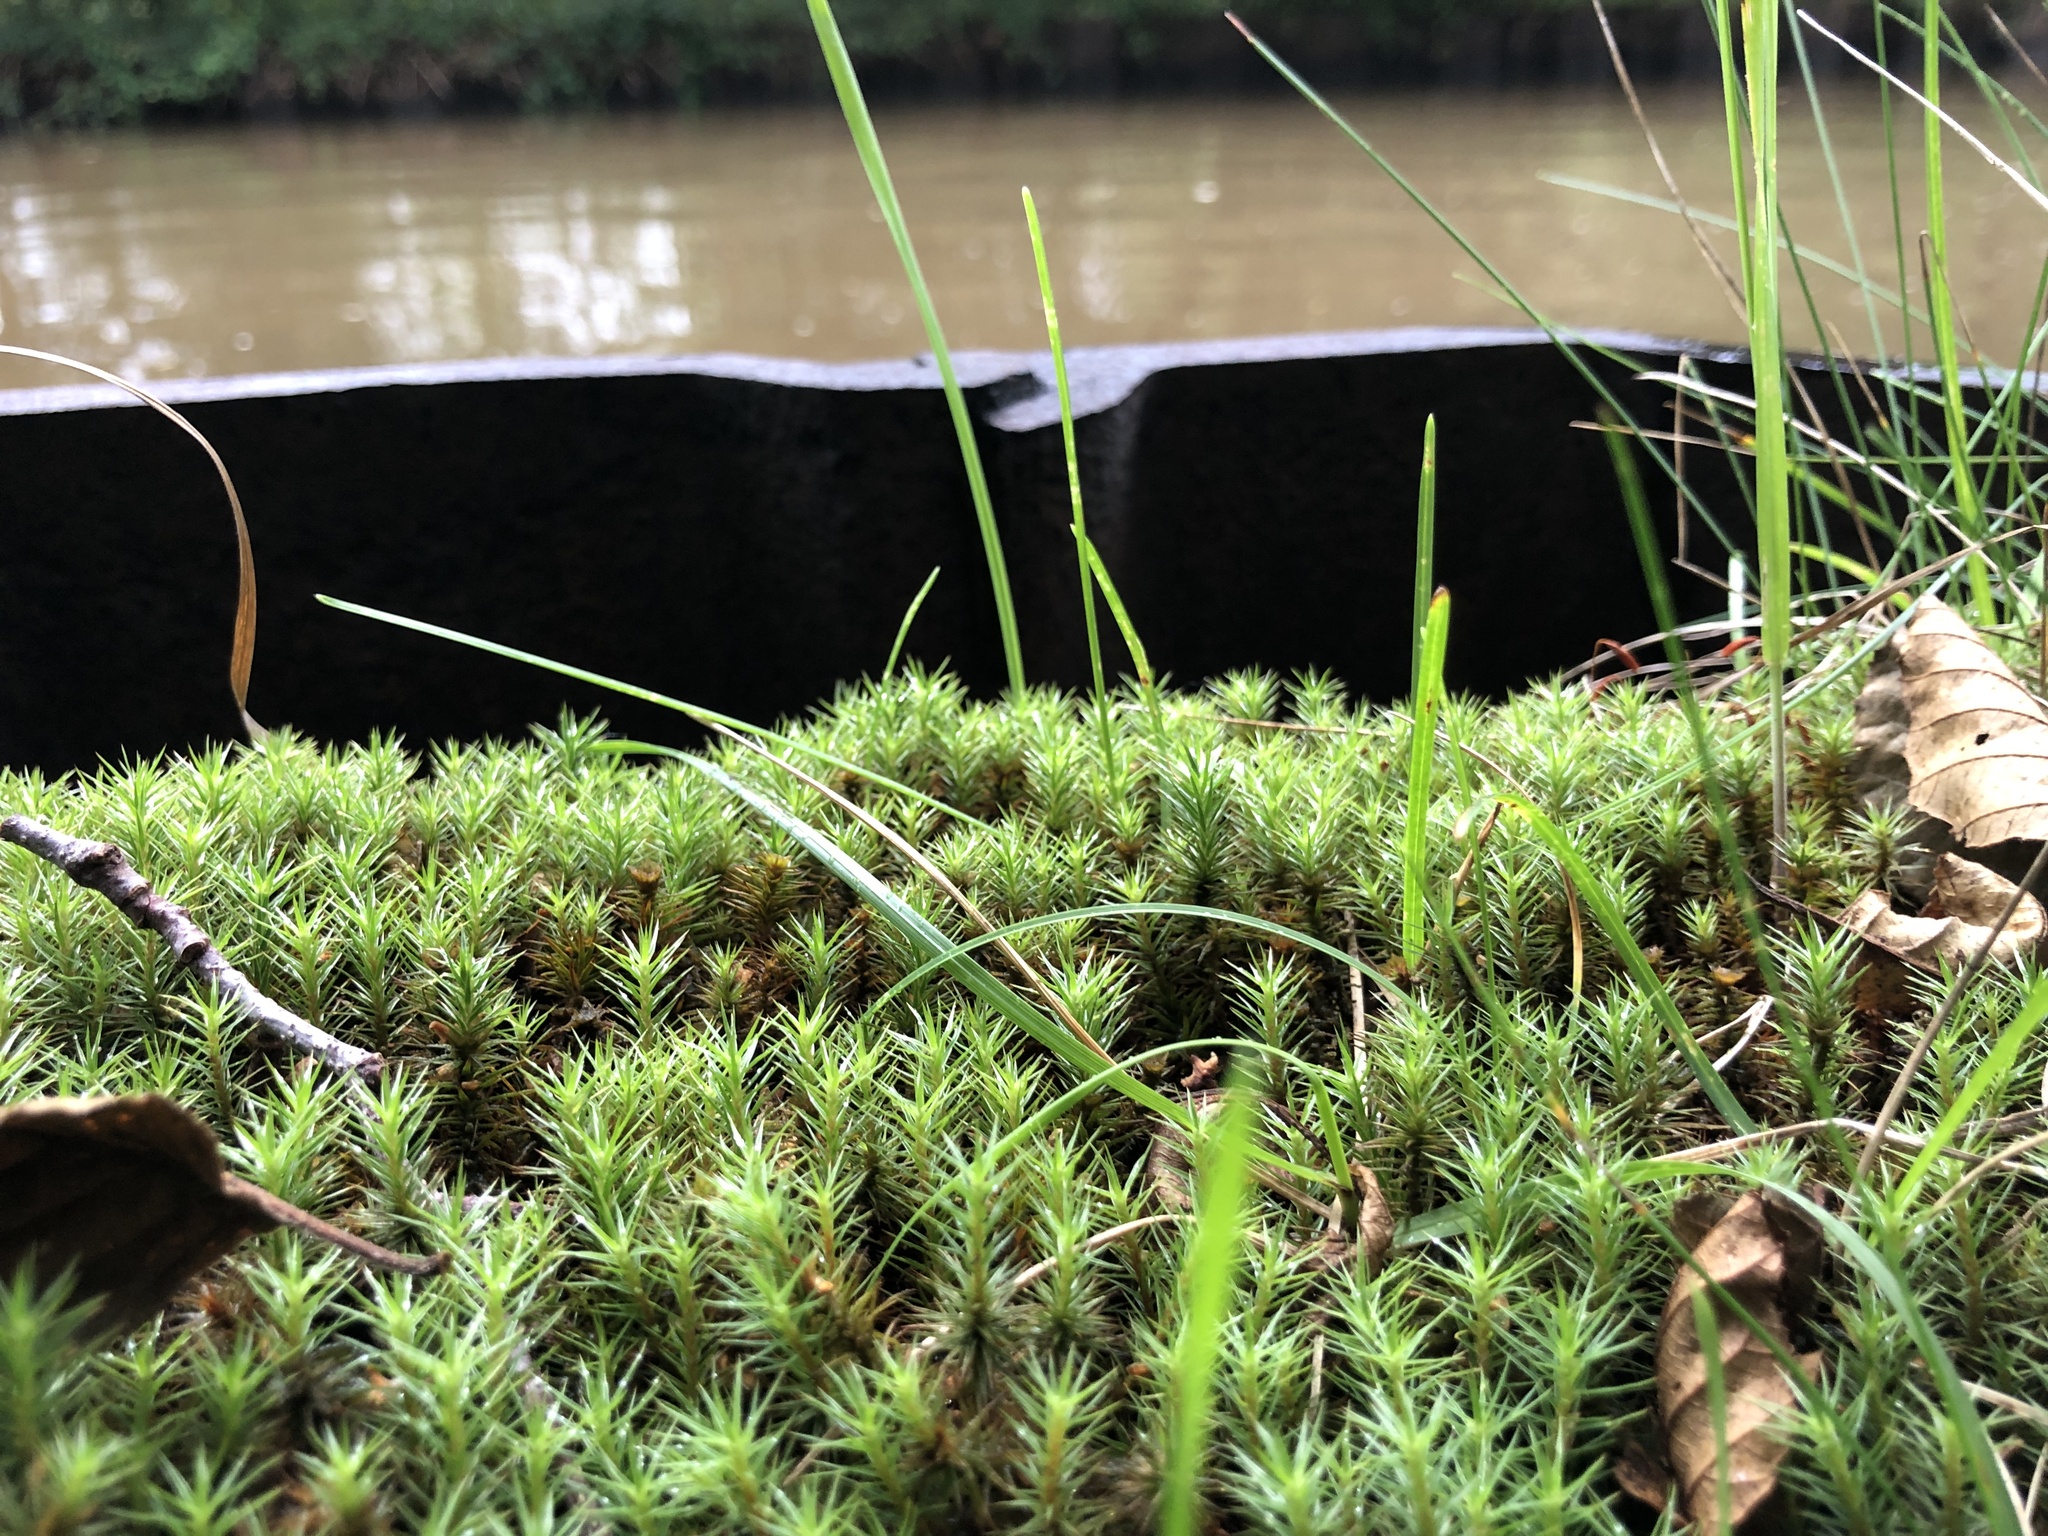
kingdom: Plantae
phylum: Bryophyta
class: Polytrichopsida
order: Polytrichales
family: Polytrichaceae
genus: Polytrichum
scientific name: Polytrichum juniperinum
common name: Juniper haircap moss
